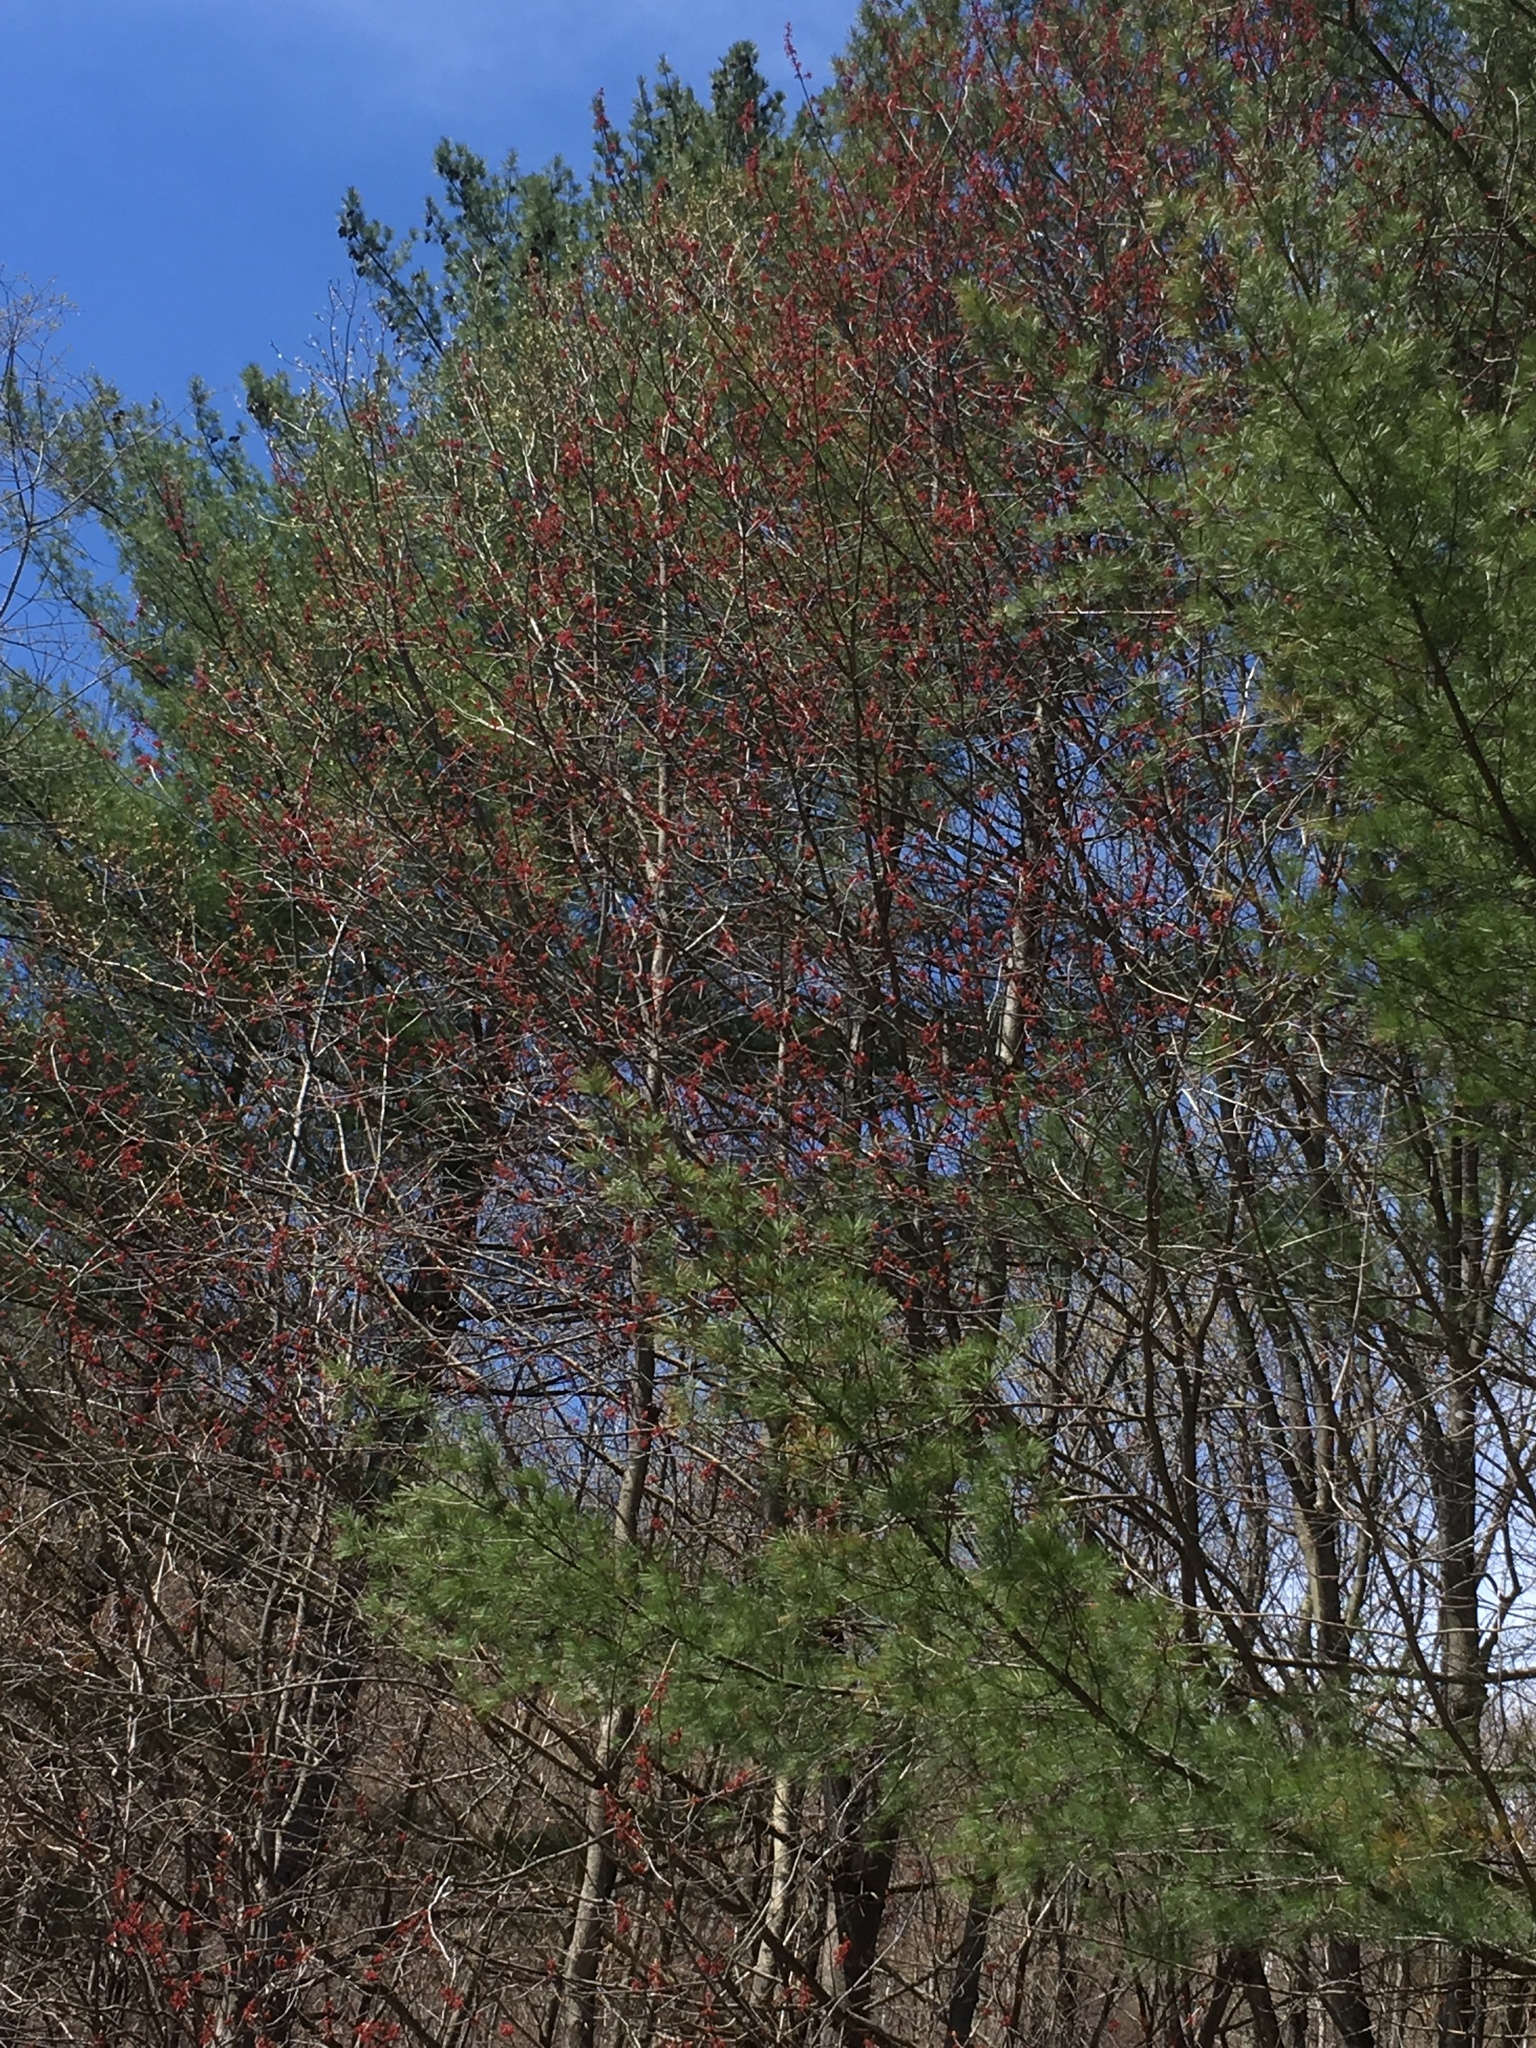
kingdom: Plantae
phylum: Tracheophyta
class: Magnoliopsida
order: Sapindales
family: Sapindaceae
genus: Acer
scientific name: Acer rubrum
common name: Red maple
